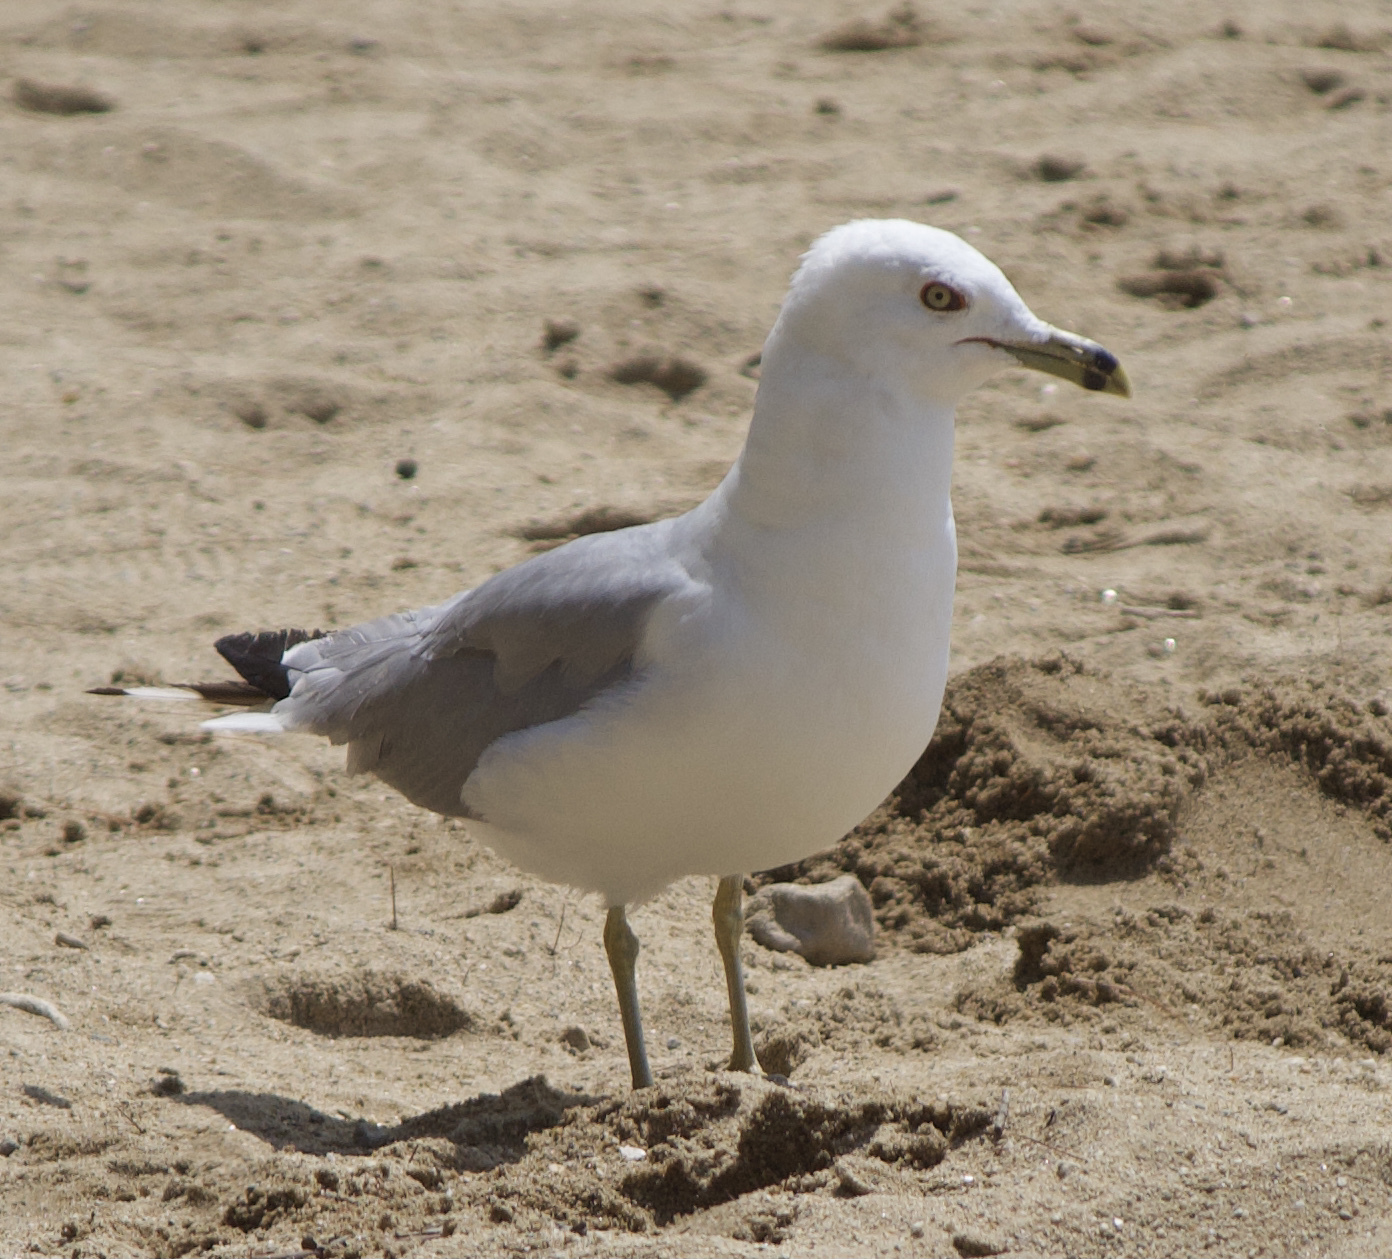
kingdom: Animalia
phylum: Chordata
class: Aves
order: Charadriiformes
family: Laridae
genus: Larus
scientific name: Larus delawarensis
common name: Ring-billed gull
